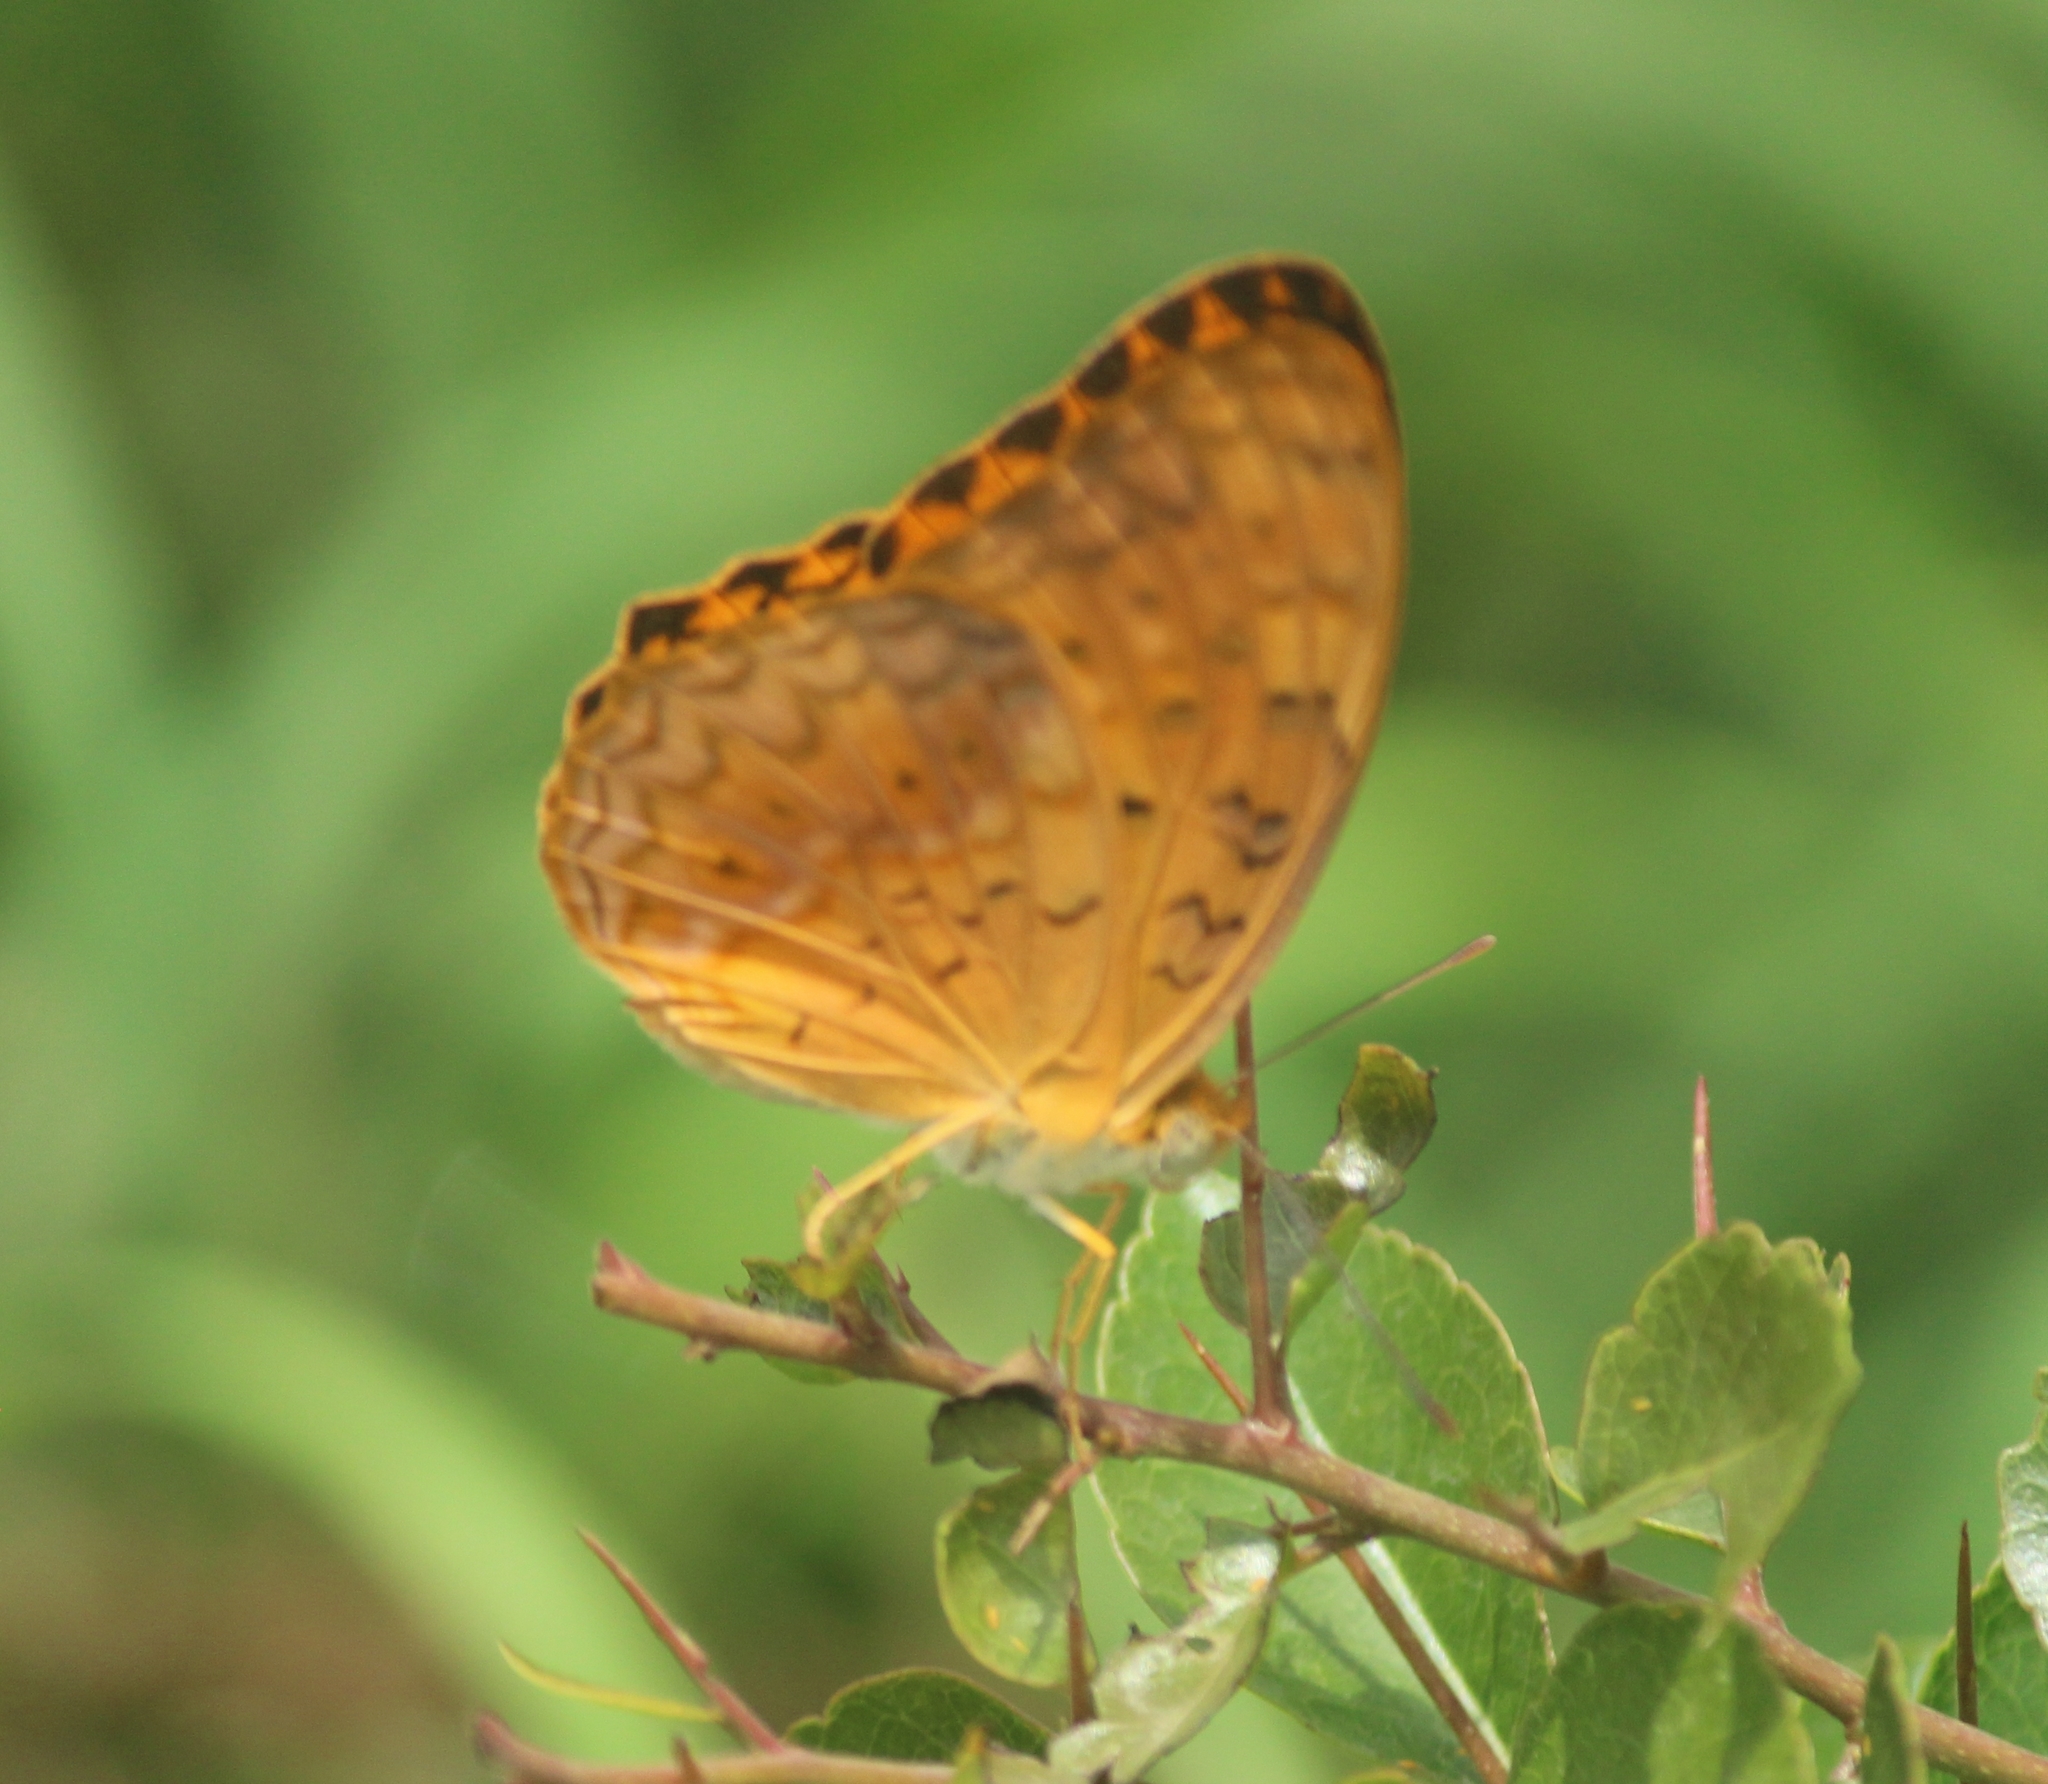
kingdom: Animalia
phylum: Arthropoda
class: Insecta
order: Lepidoptera
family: Nymphalidae
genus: Phalanta
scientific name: Phalanta phalantha
